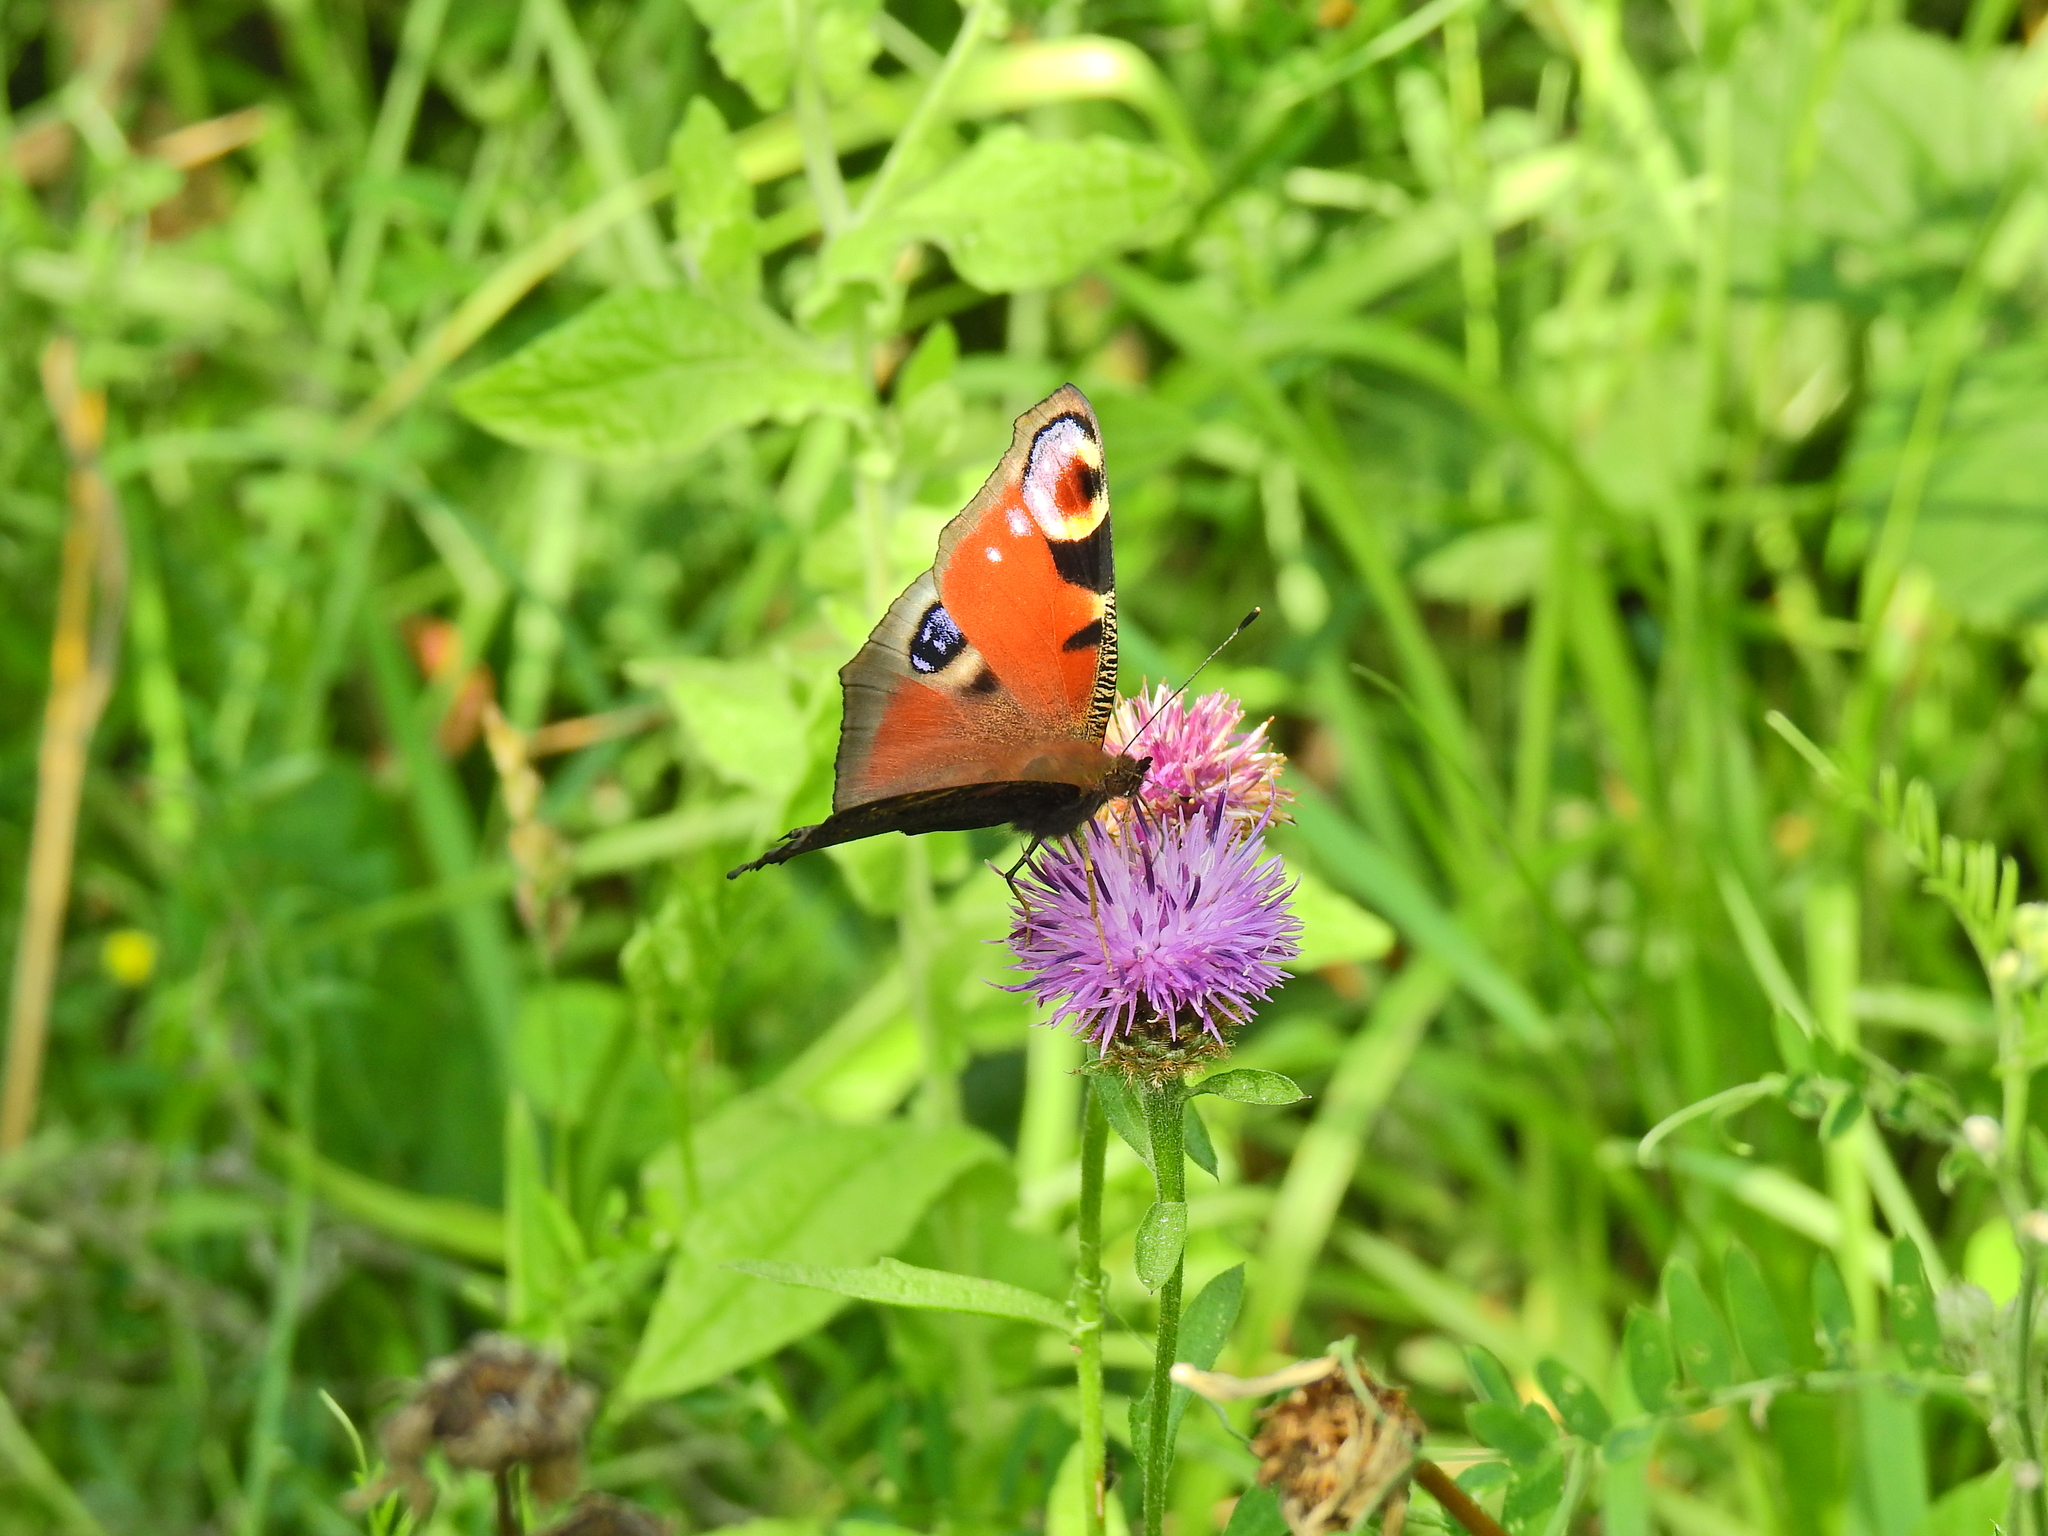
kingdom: Animalia
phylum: Arthropoda
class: Insecta
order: Lepidoptera
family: Nymphalidae
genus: Aglais
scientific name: Aglais io
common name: Peacock
